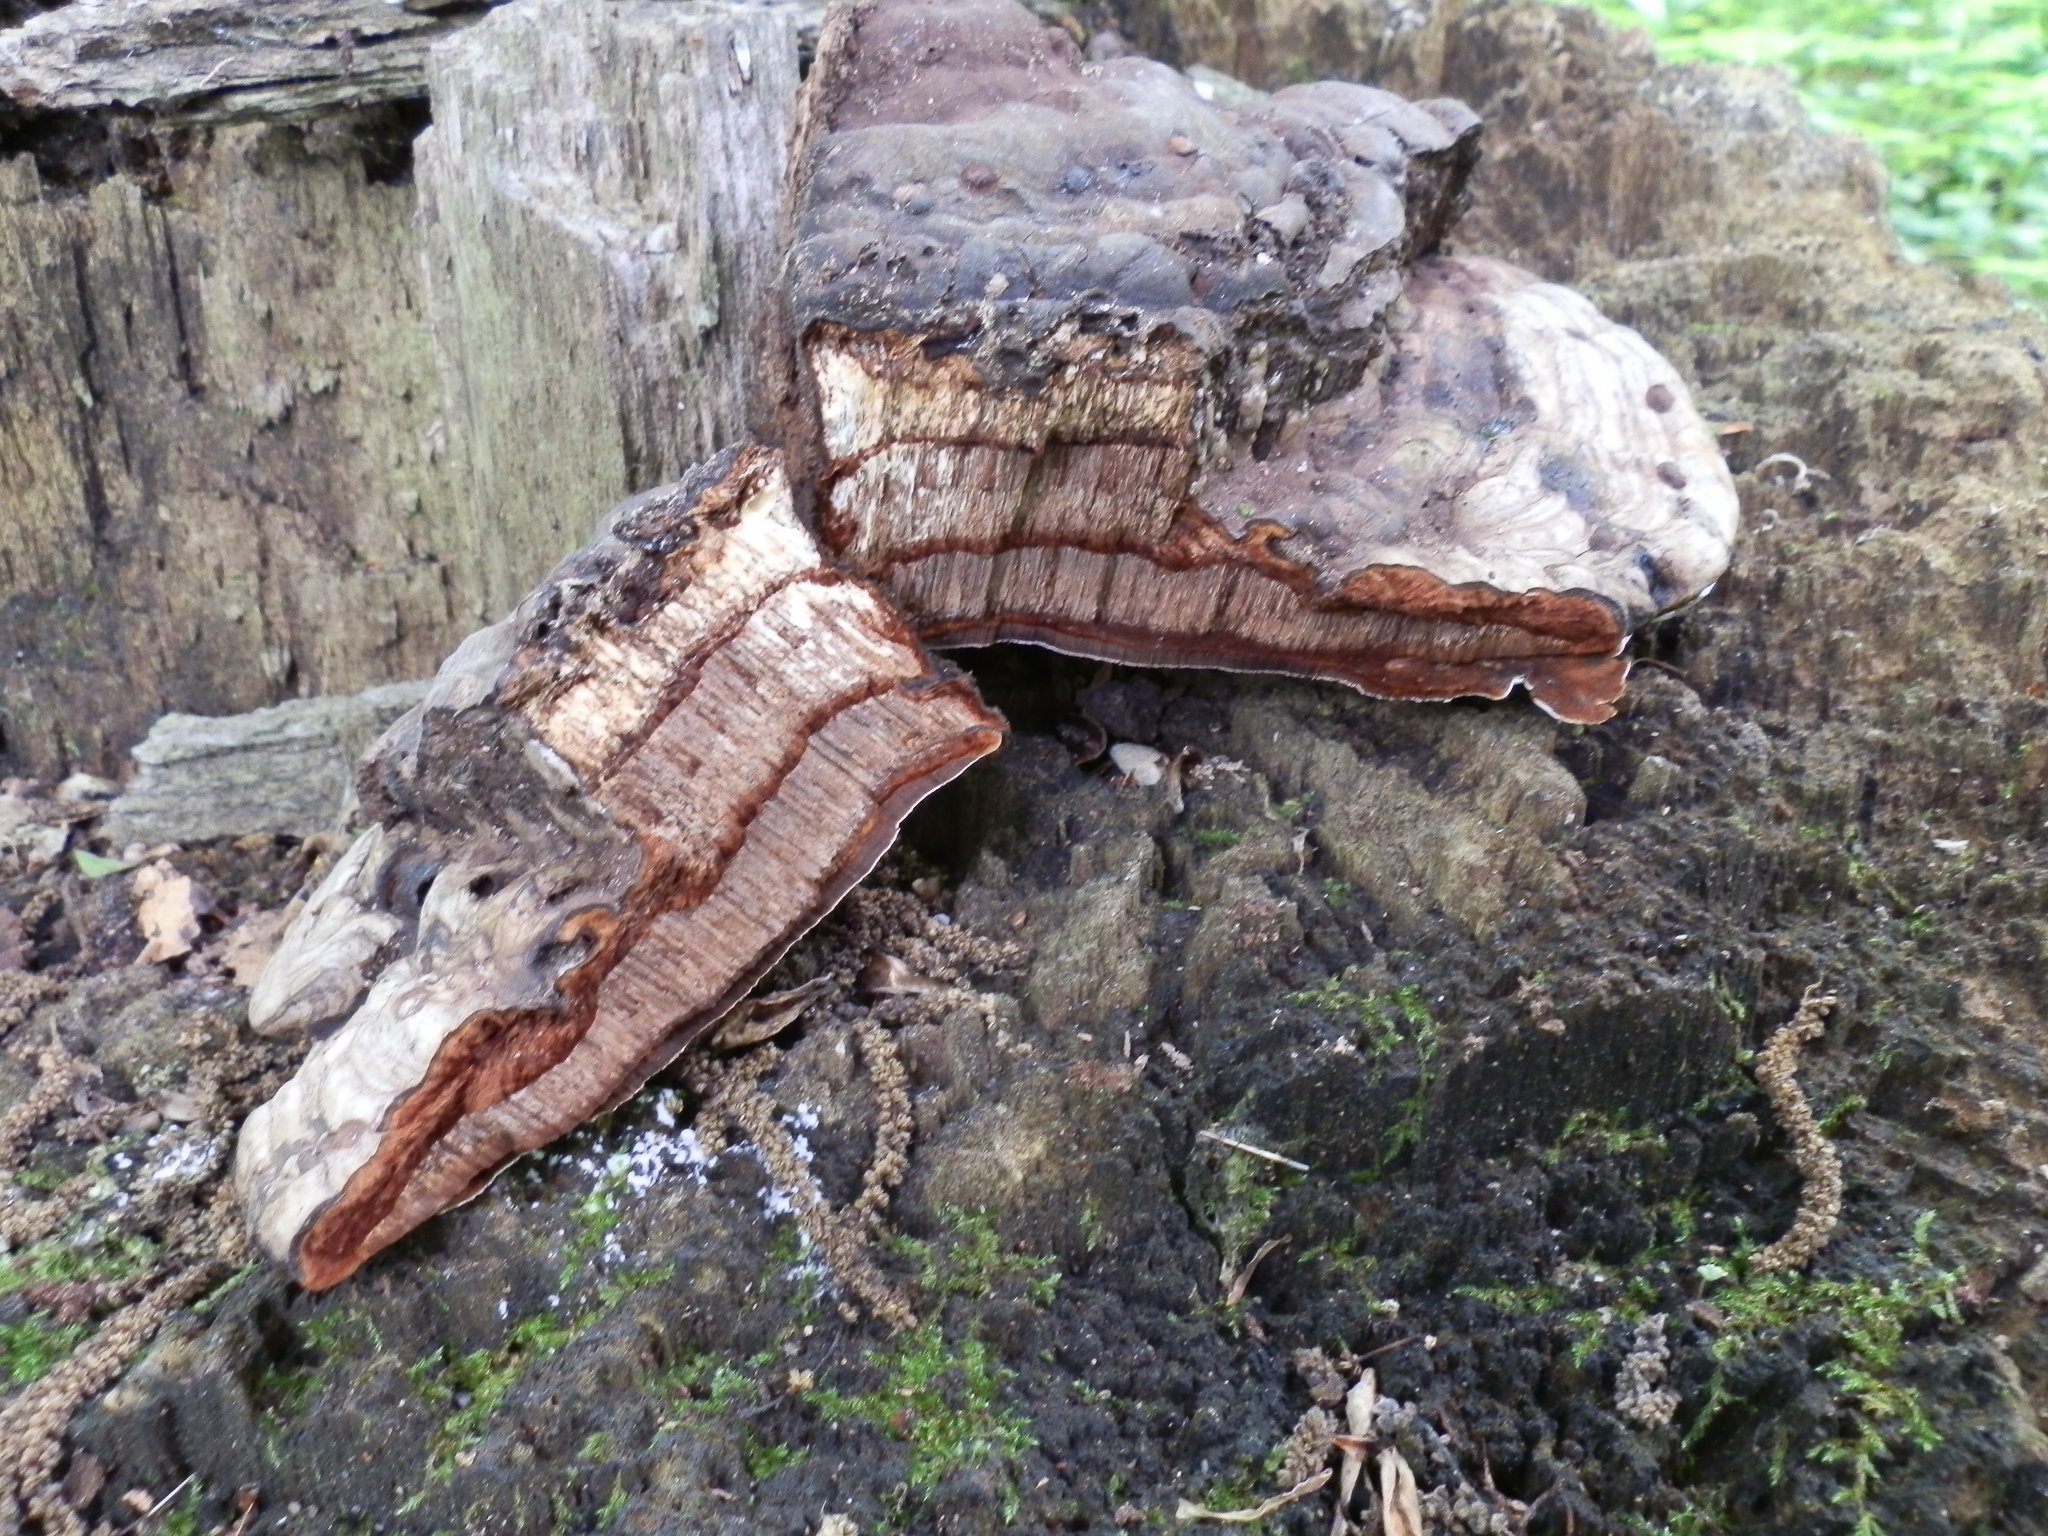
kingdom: Fungi
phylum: Basidiomycota
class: Agaricomycetes
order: Polyporales
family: Polyporaceae
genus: Ganoderma
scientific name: Ganoderma applanatum
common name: Artist's bracket
